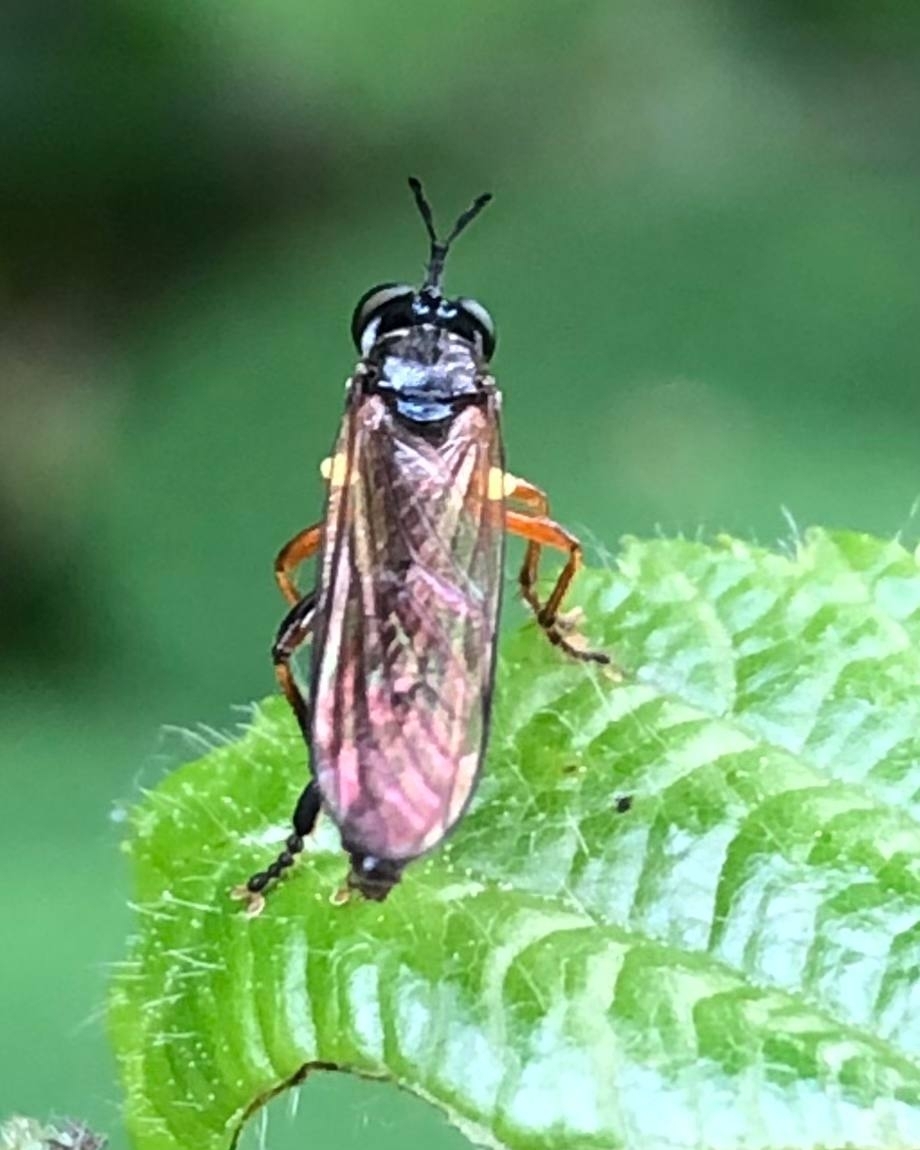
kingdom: Animalia
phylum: Arthropoda
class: Insecta
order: Diptera
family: Asilidae
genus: Dioctria
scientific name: Dioctria hyalipennis
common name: Stripe-legged robberfly
